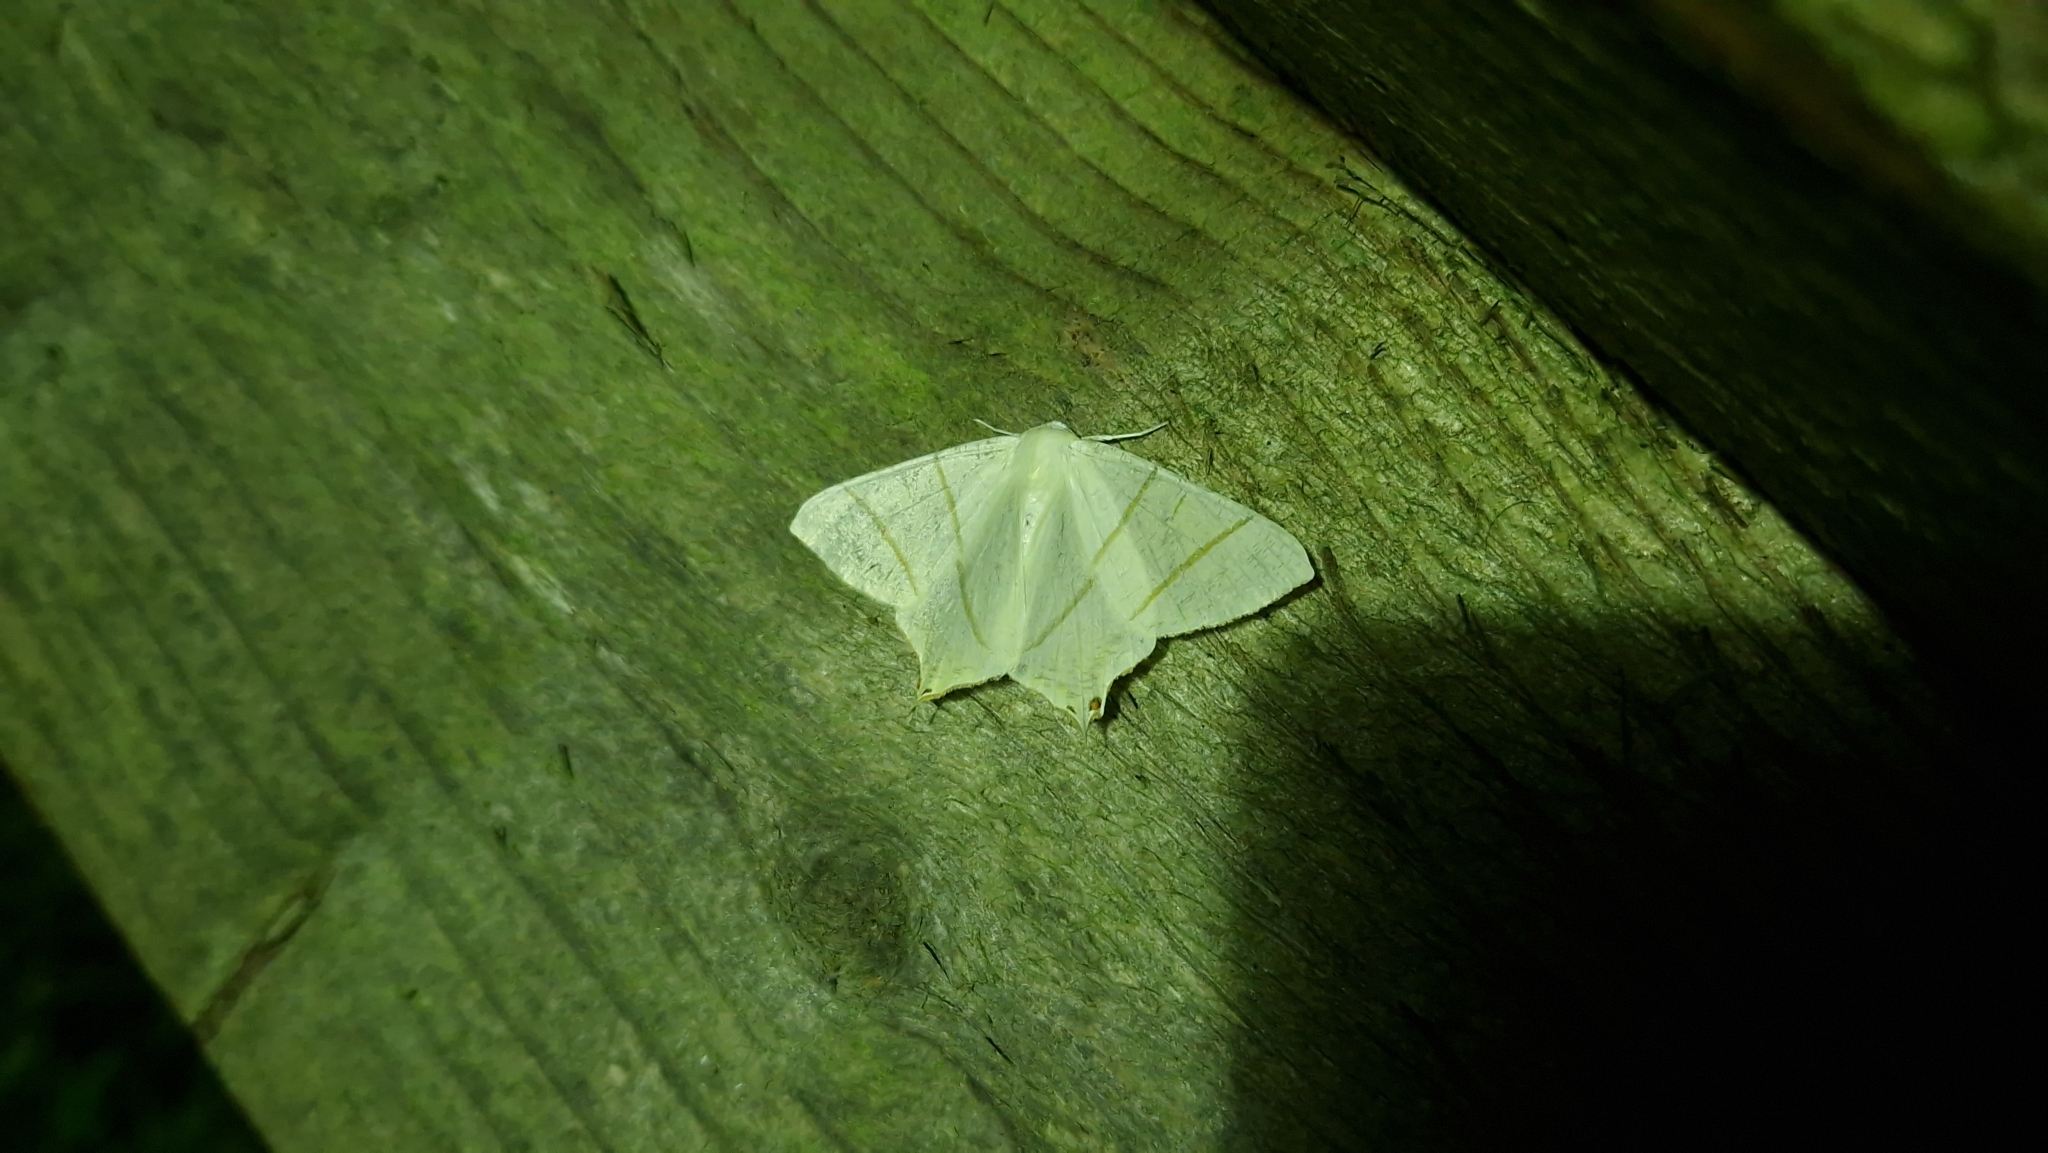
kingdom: Animalia
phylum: Arthropoda
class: Insecta
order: Lepidoptera
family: Geometridae
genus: Ourapteryx
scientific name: Ourapteryx sambucaria
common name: Swallow-tailed moth
